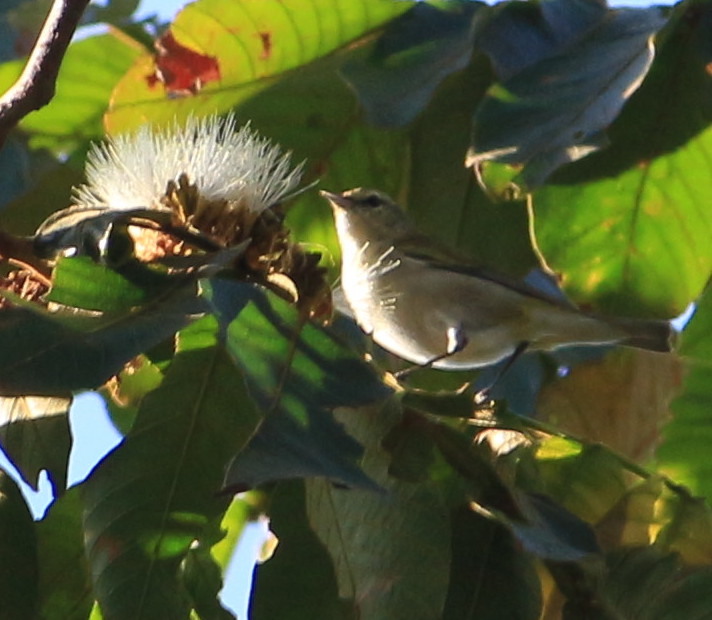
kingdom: Animalia
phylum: Chordata
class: Aves
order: Passeriformes
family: Parulidae
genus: Leiothlypis
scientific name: Leiothlypis peregrina
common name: Tennessee warbler
